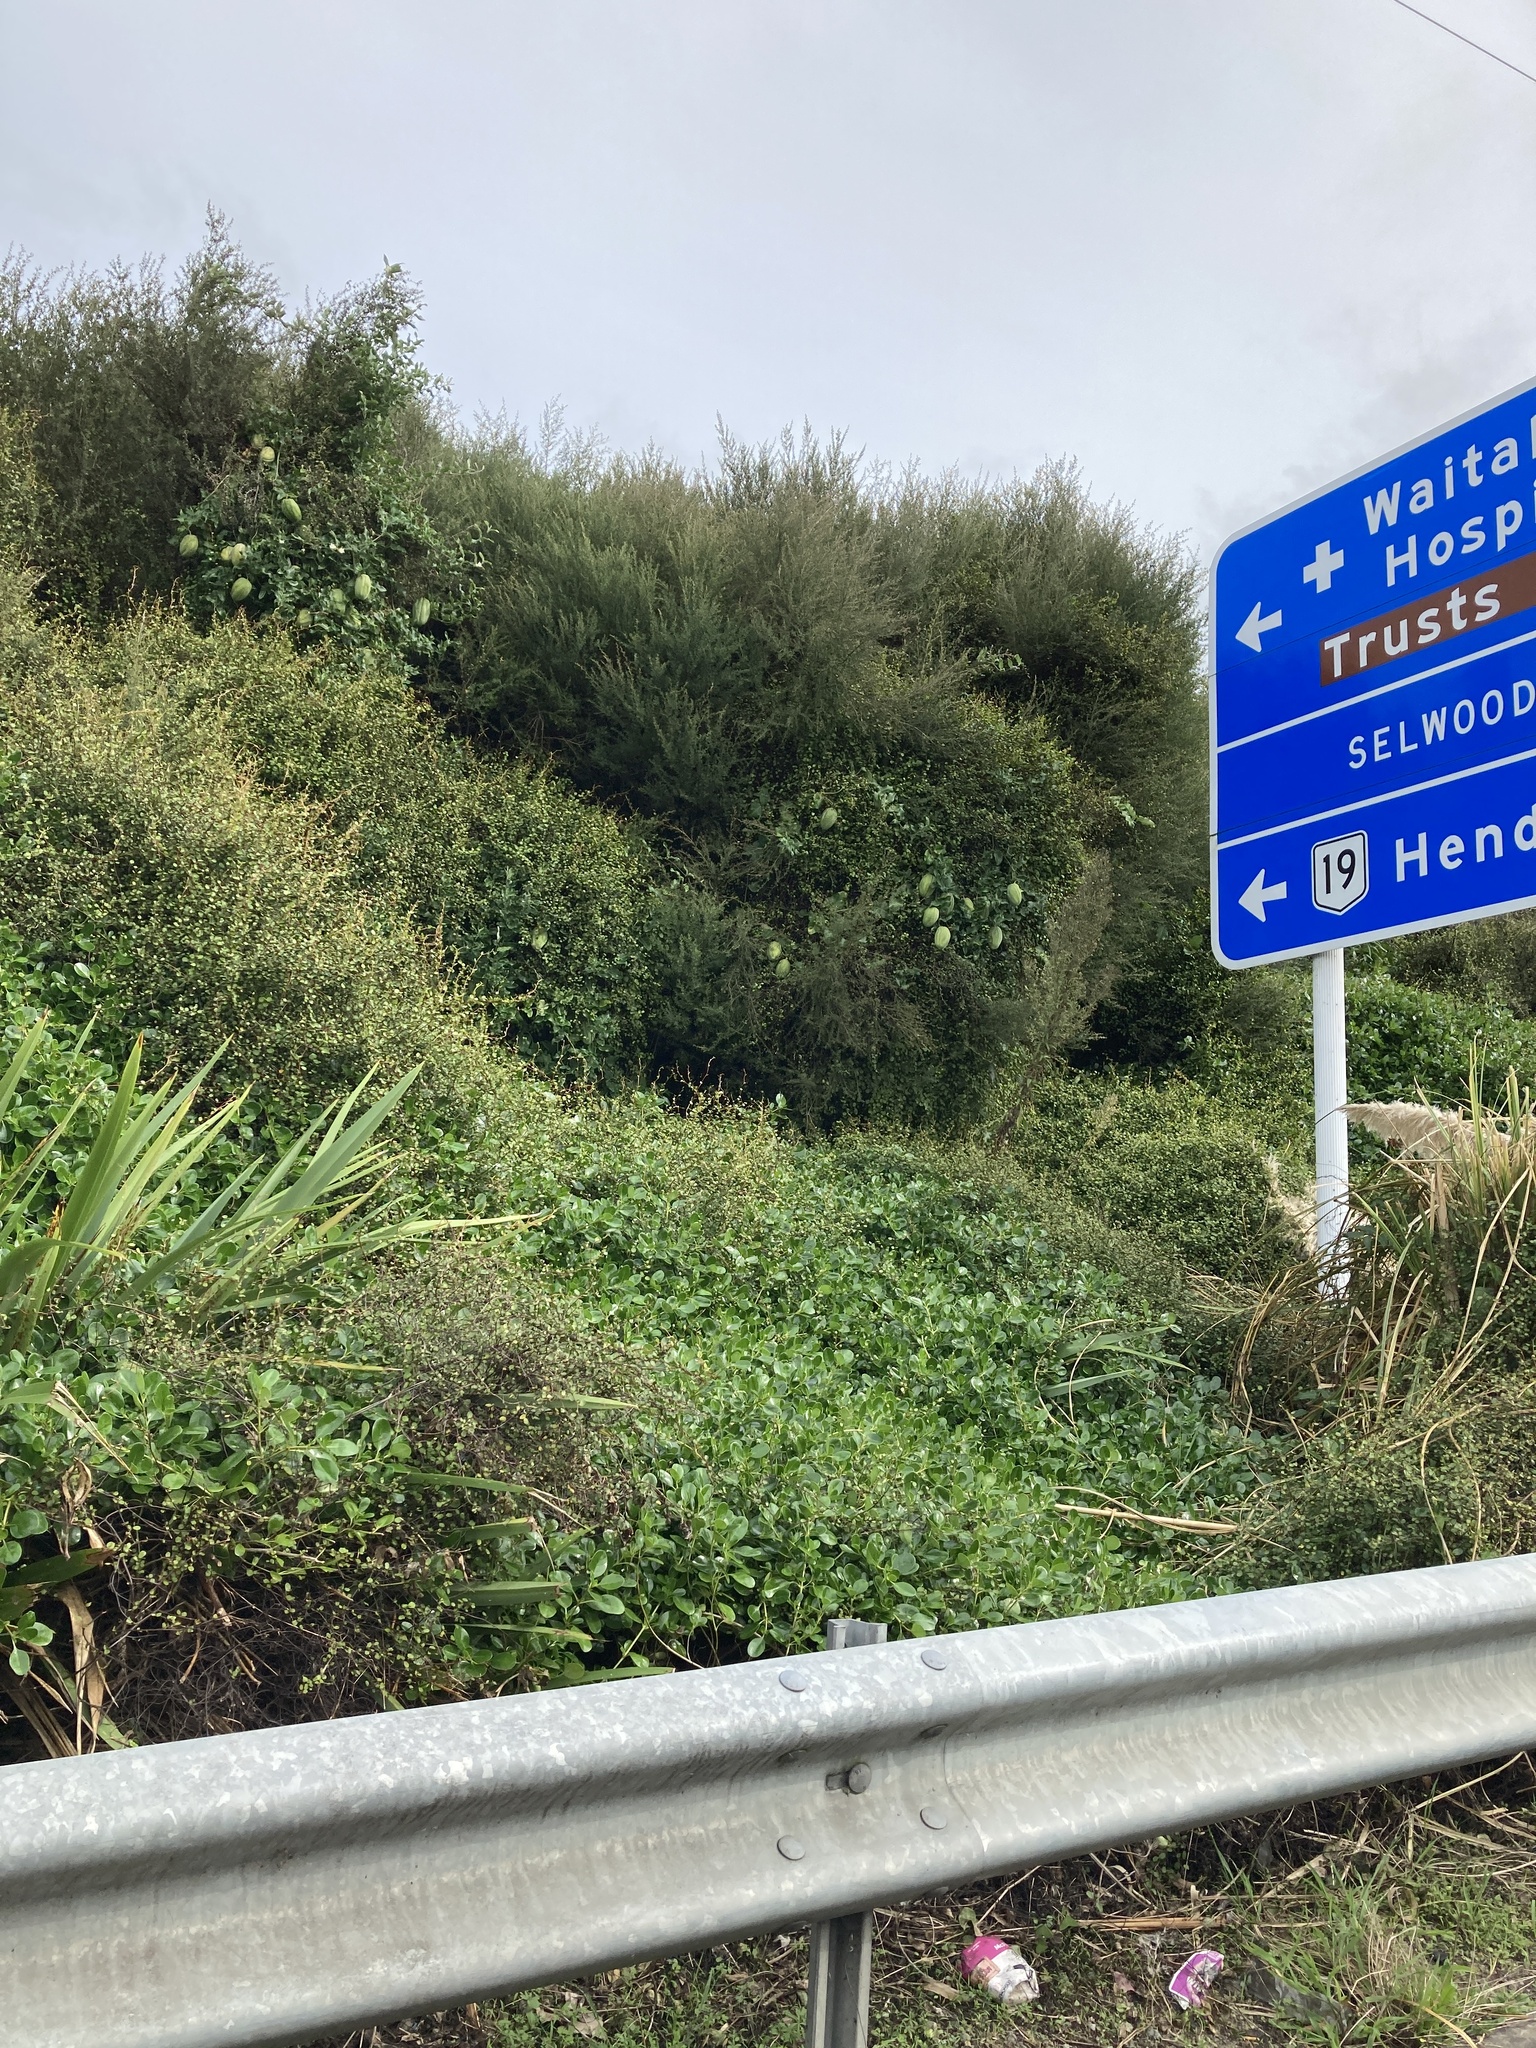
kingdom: Plantae
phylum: Tracheophyta
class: Magnoliopsida
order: Gentianales
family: Apocynaceae
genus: Araujia
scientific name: Araujia sericifera
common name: White bladderflower
